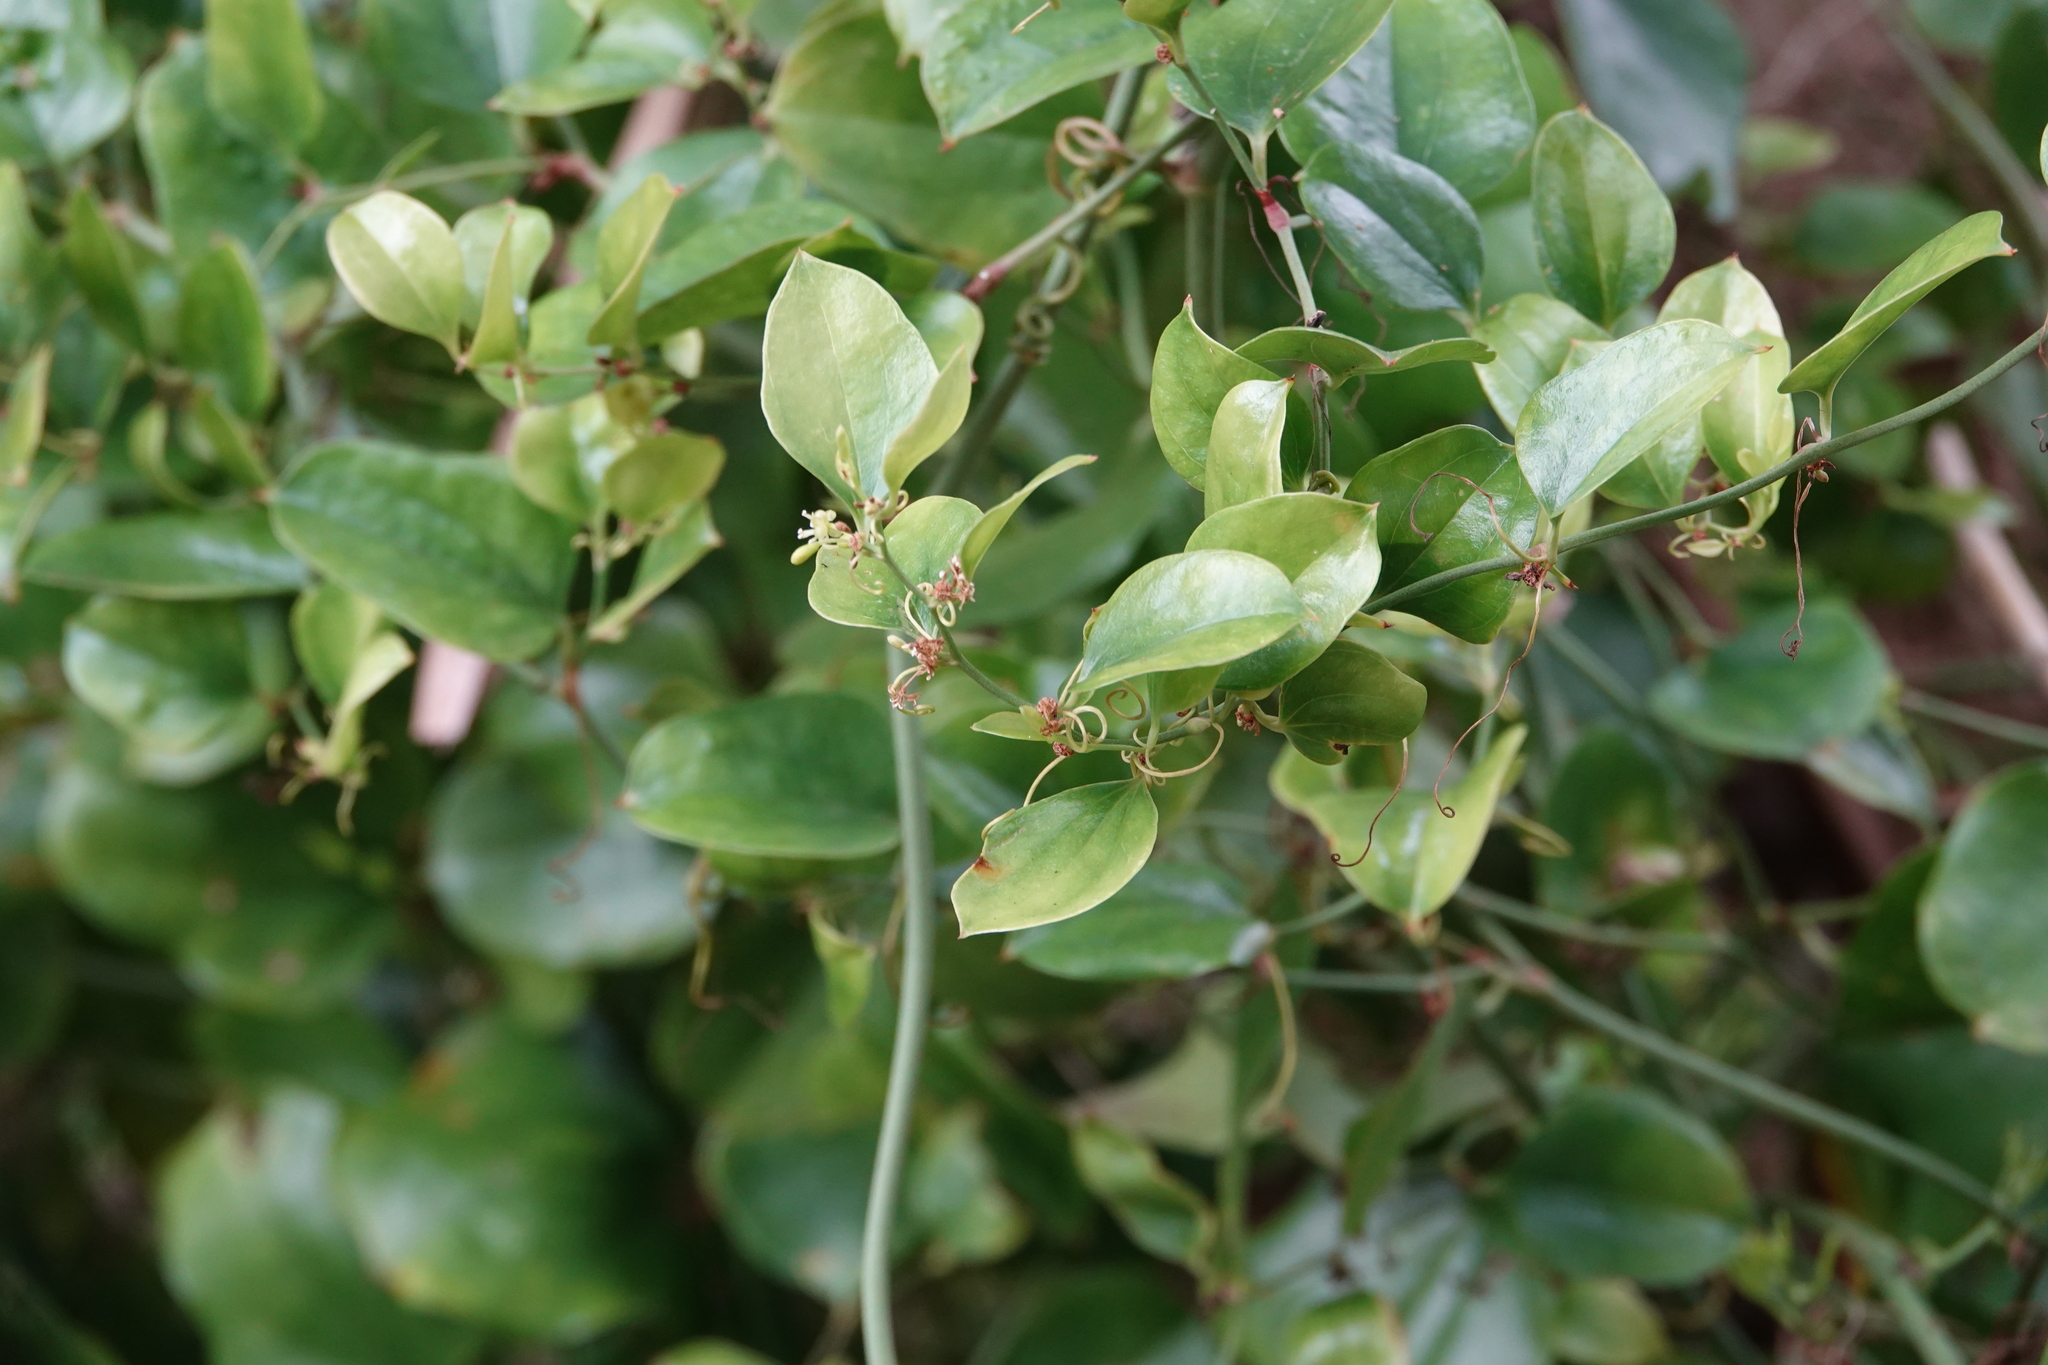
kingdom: Plantae
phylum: Tracheophyta
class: Liliopsida
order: Liliales
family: Smilacaceae
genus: Smilax
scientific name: Smilax auriculata
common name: Wild bamboo
